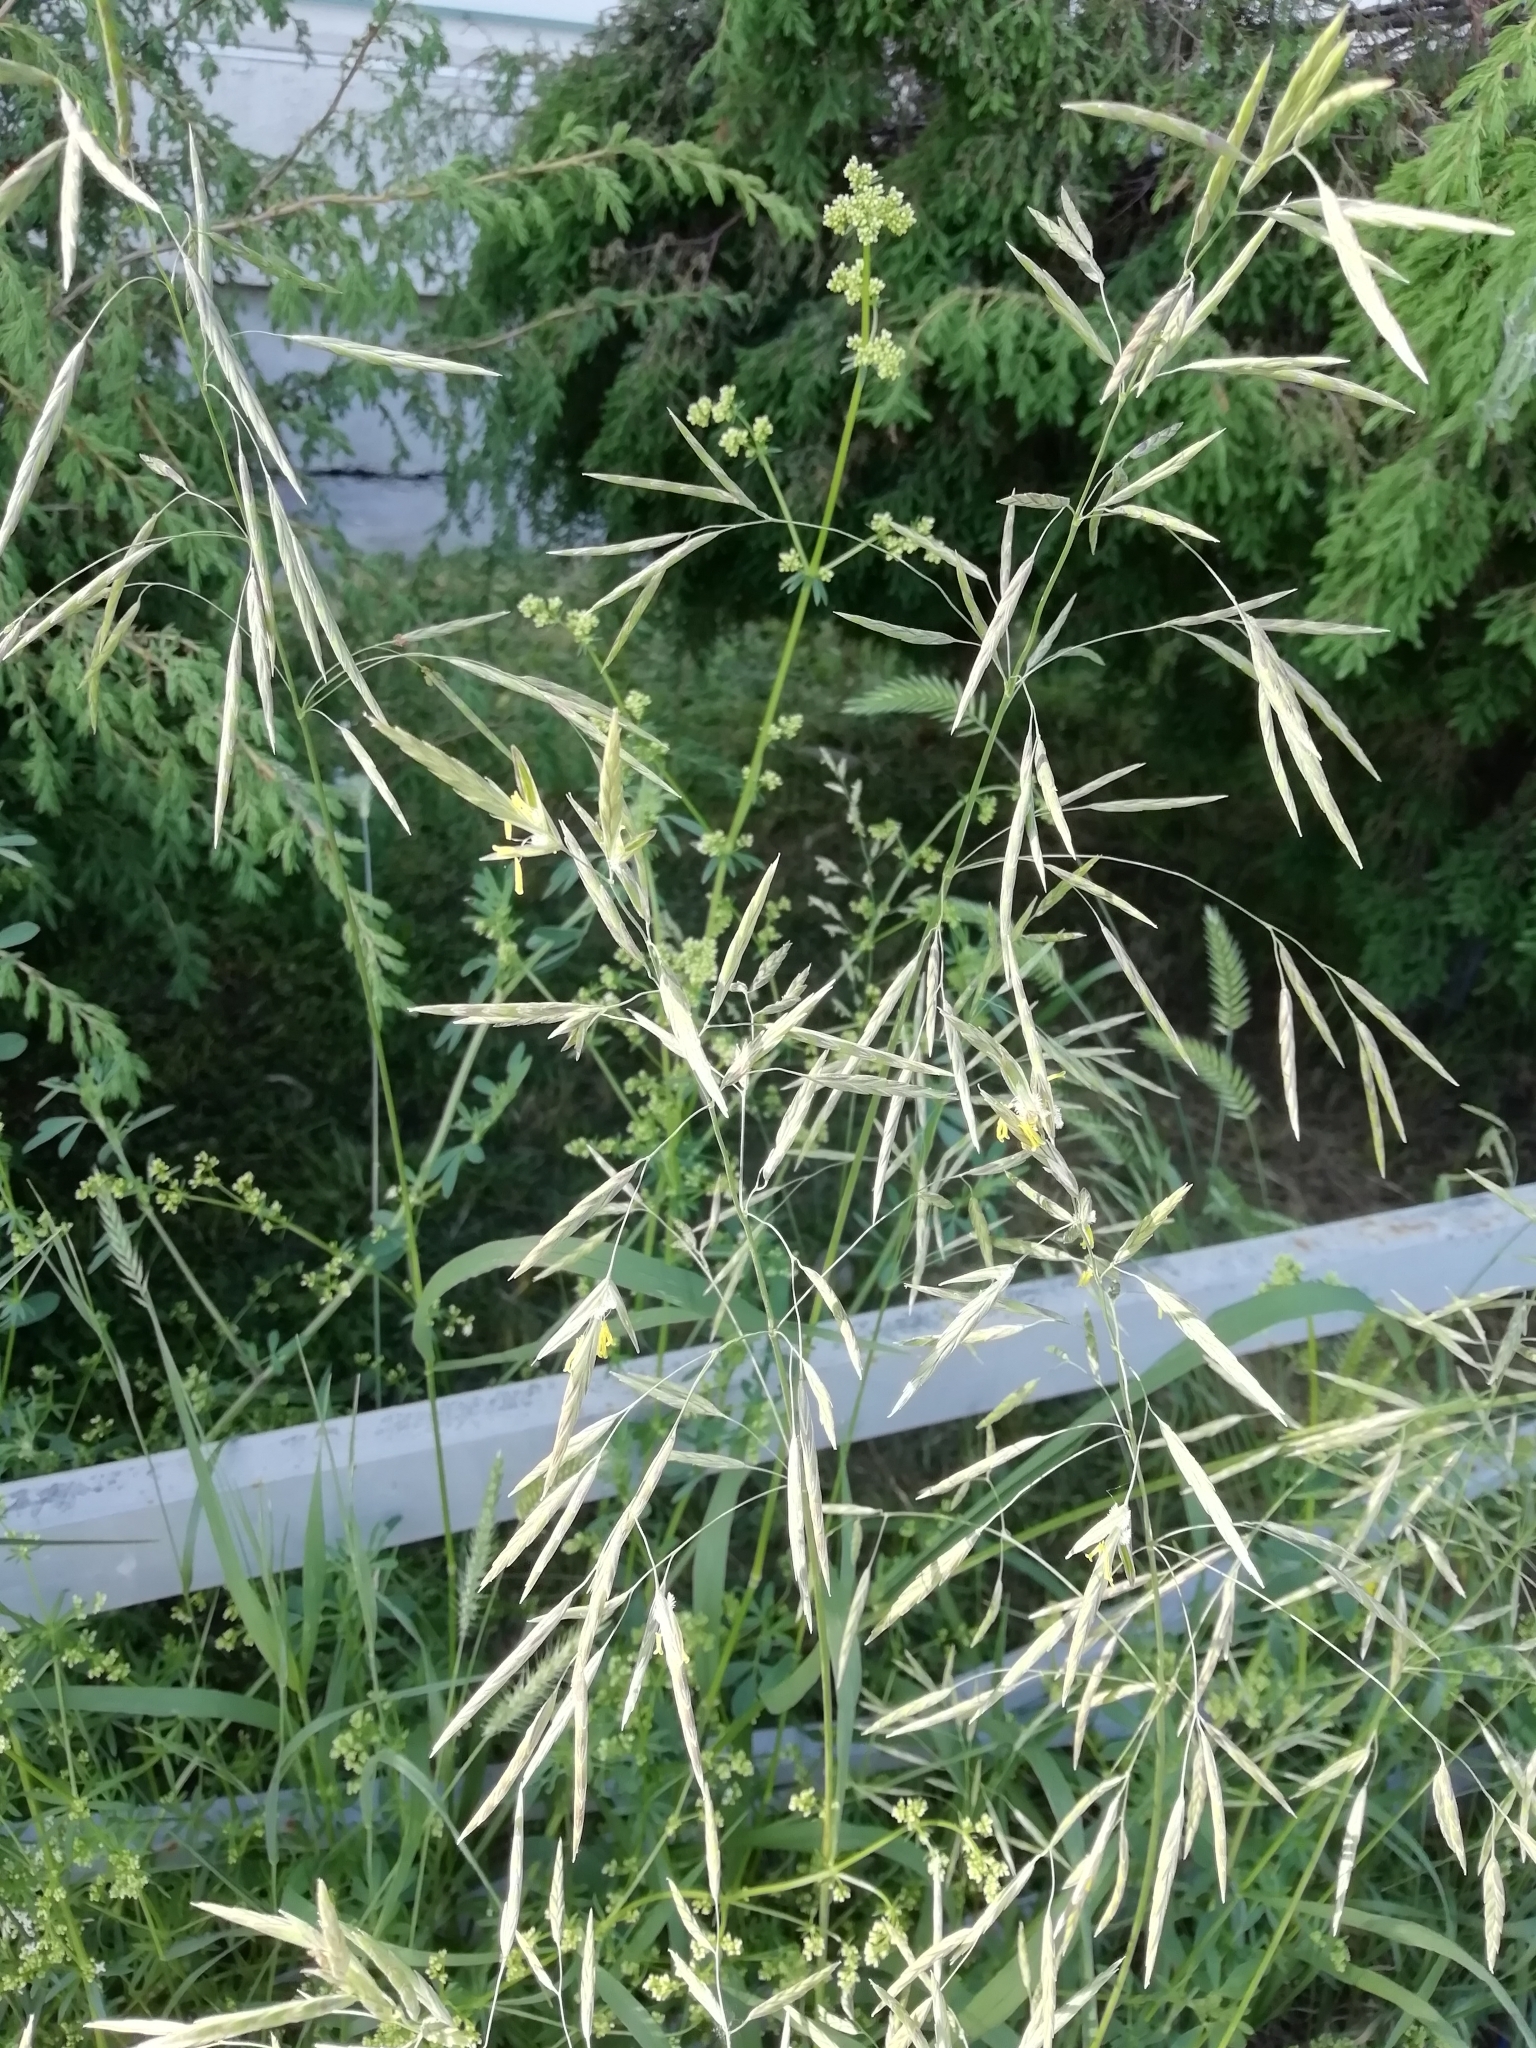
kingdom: Plantae
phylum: Tracheophyta
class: Liliopsida
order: Poales
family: Poaceae
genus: Bromus
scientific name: Bromus inermis
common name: Smooth brome
